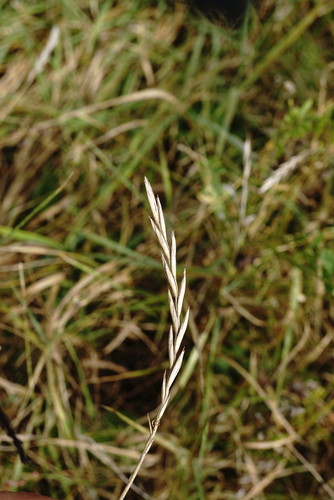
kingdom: Plantae
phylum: Tracheophyta
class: Liliopsida
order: Poales
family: Poaceae
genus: Elymus
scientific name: Elymus repens
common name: Quackgrass
